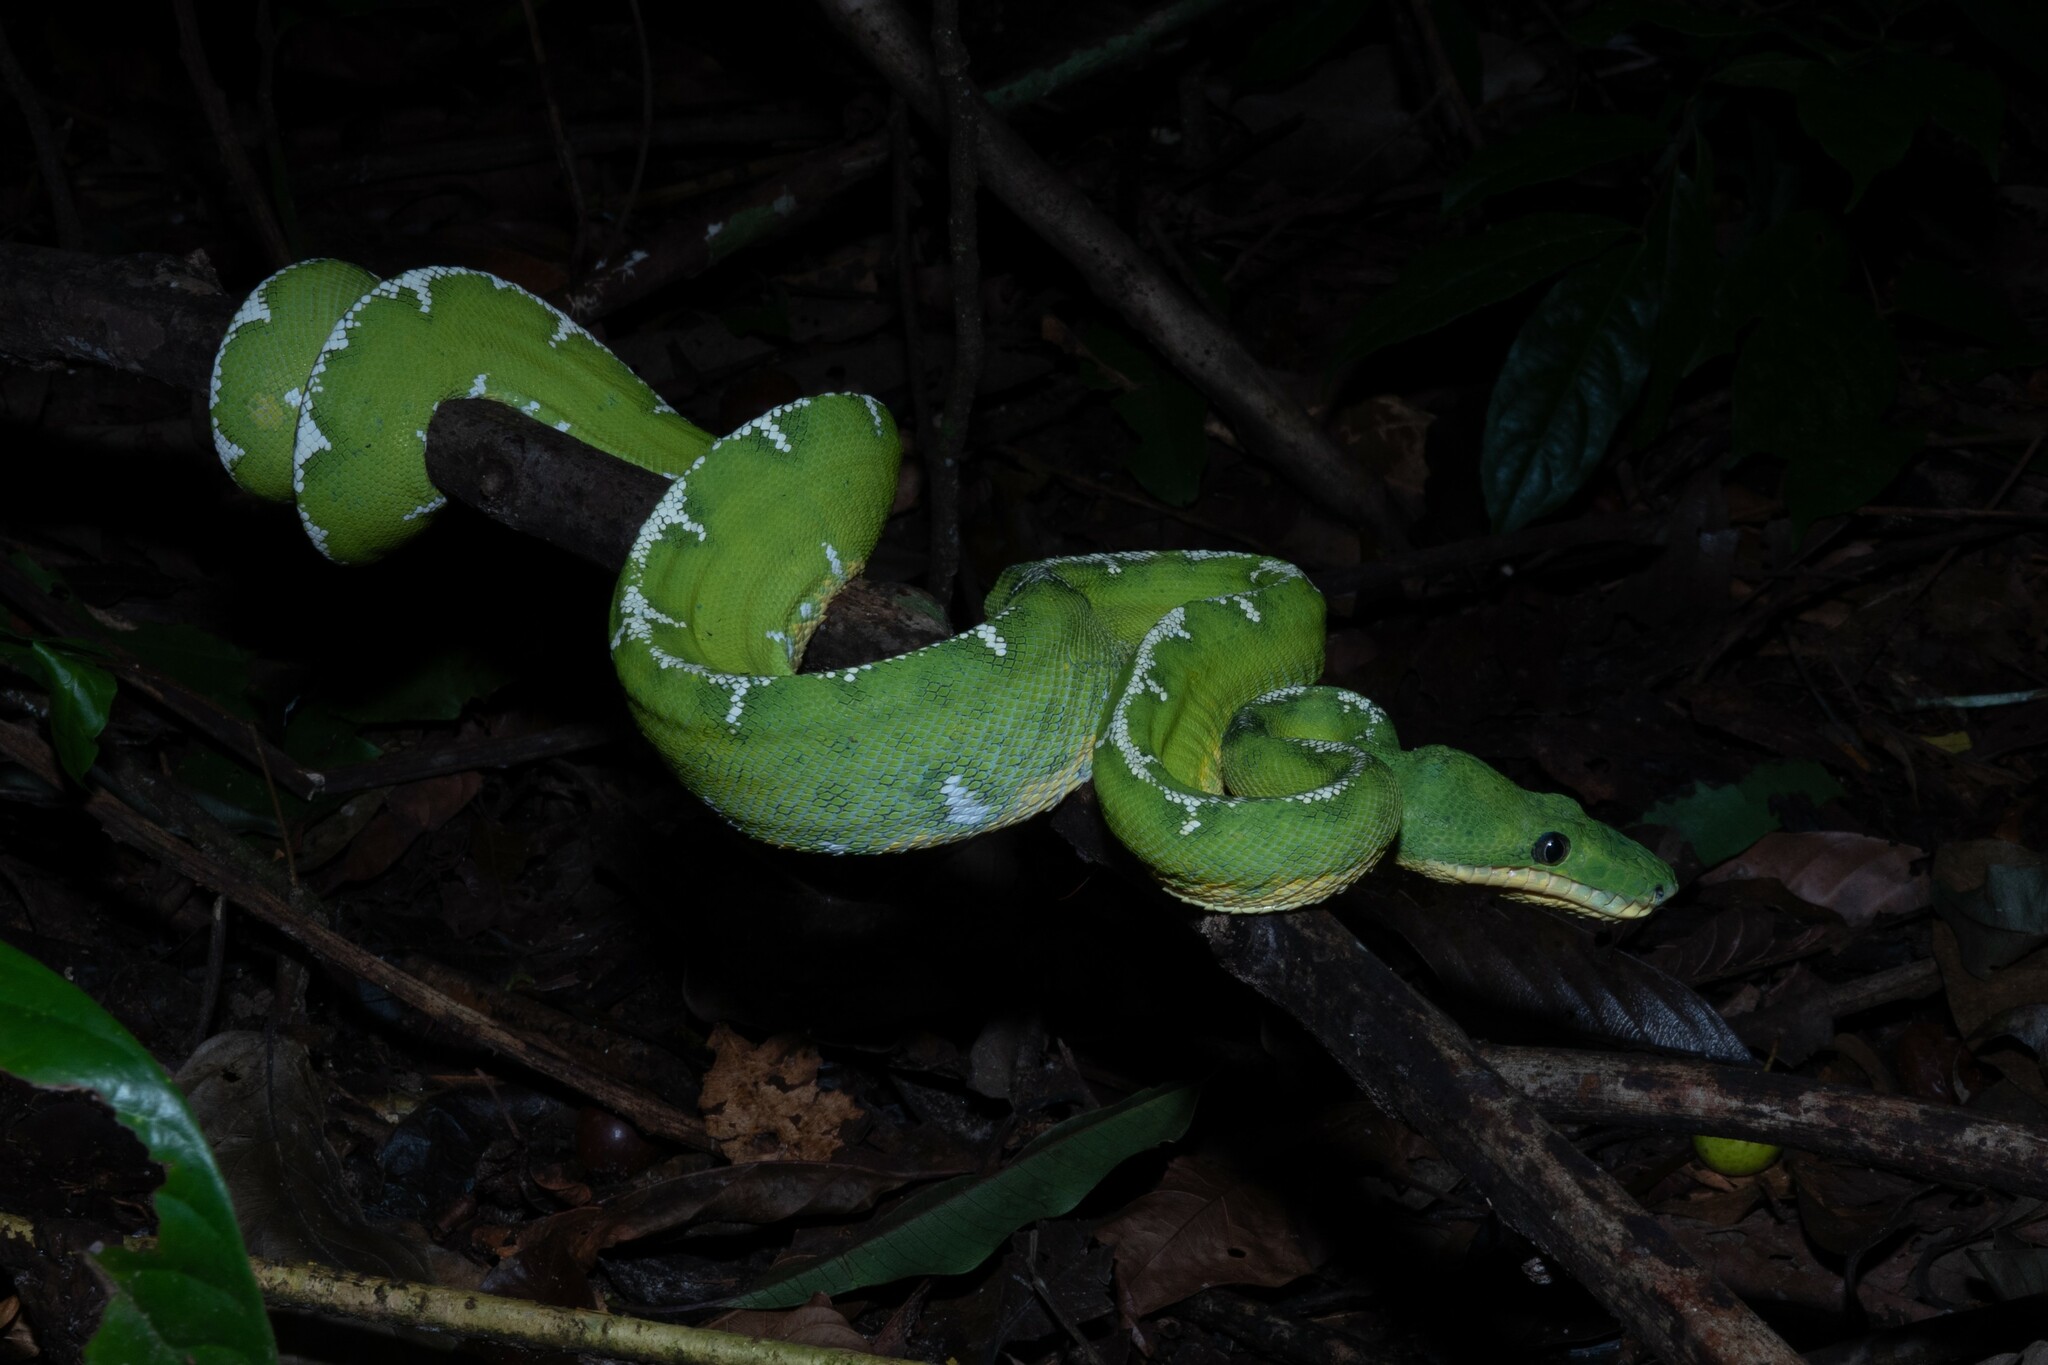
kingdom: Animalia
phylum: Chordata
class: Squamata
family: Boidae
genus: Corallus
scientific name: Corallus batesii
